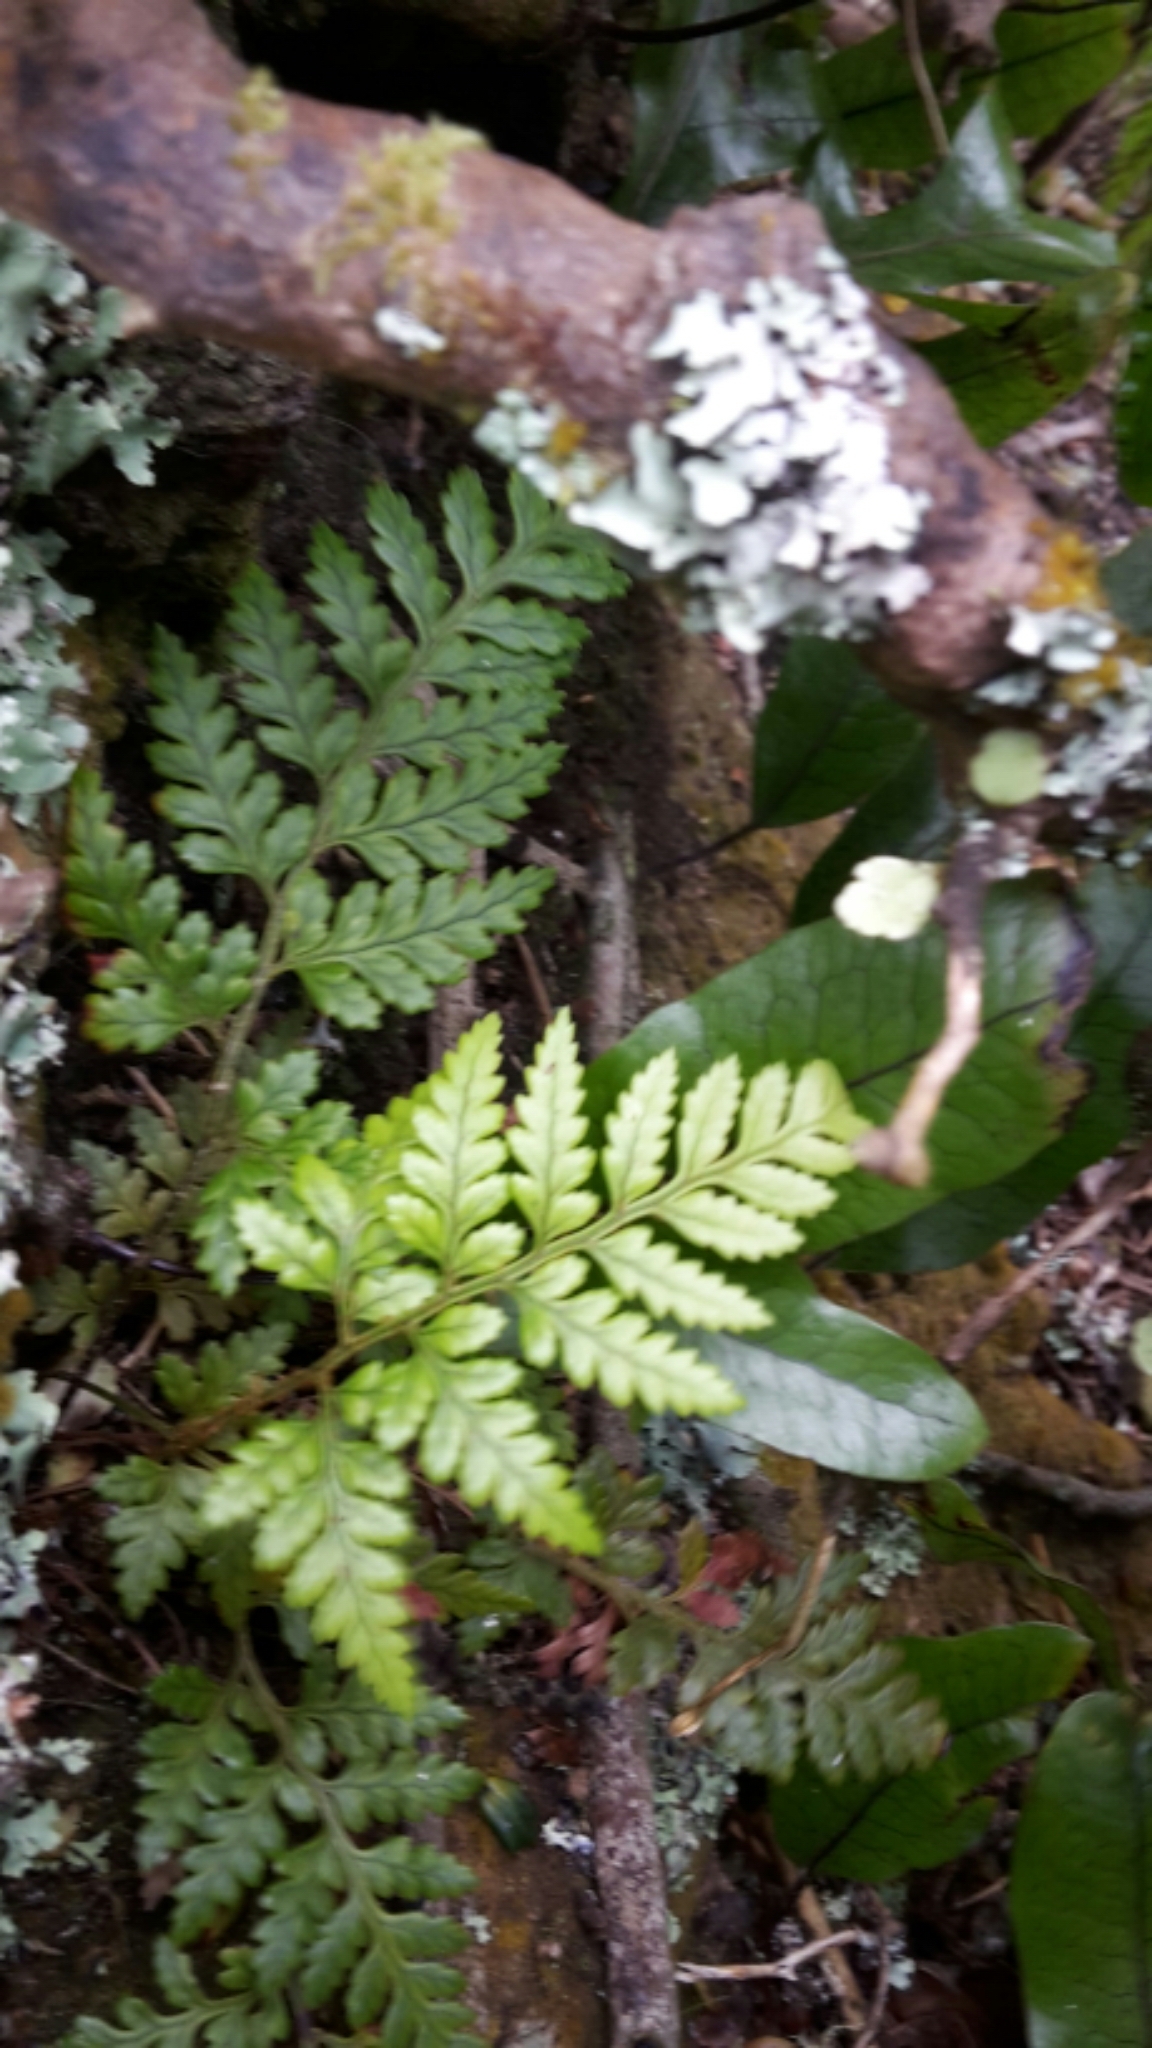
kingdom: Plantae
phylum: Tracheophyta
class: Polypodiopsida
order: Polypodiales
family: Dryopteridaceae
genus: Rumohra
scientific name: Rumohra adiantiformis
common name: Leather fern
